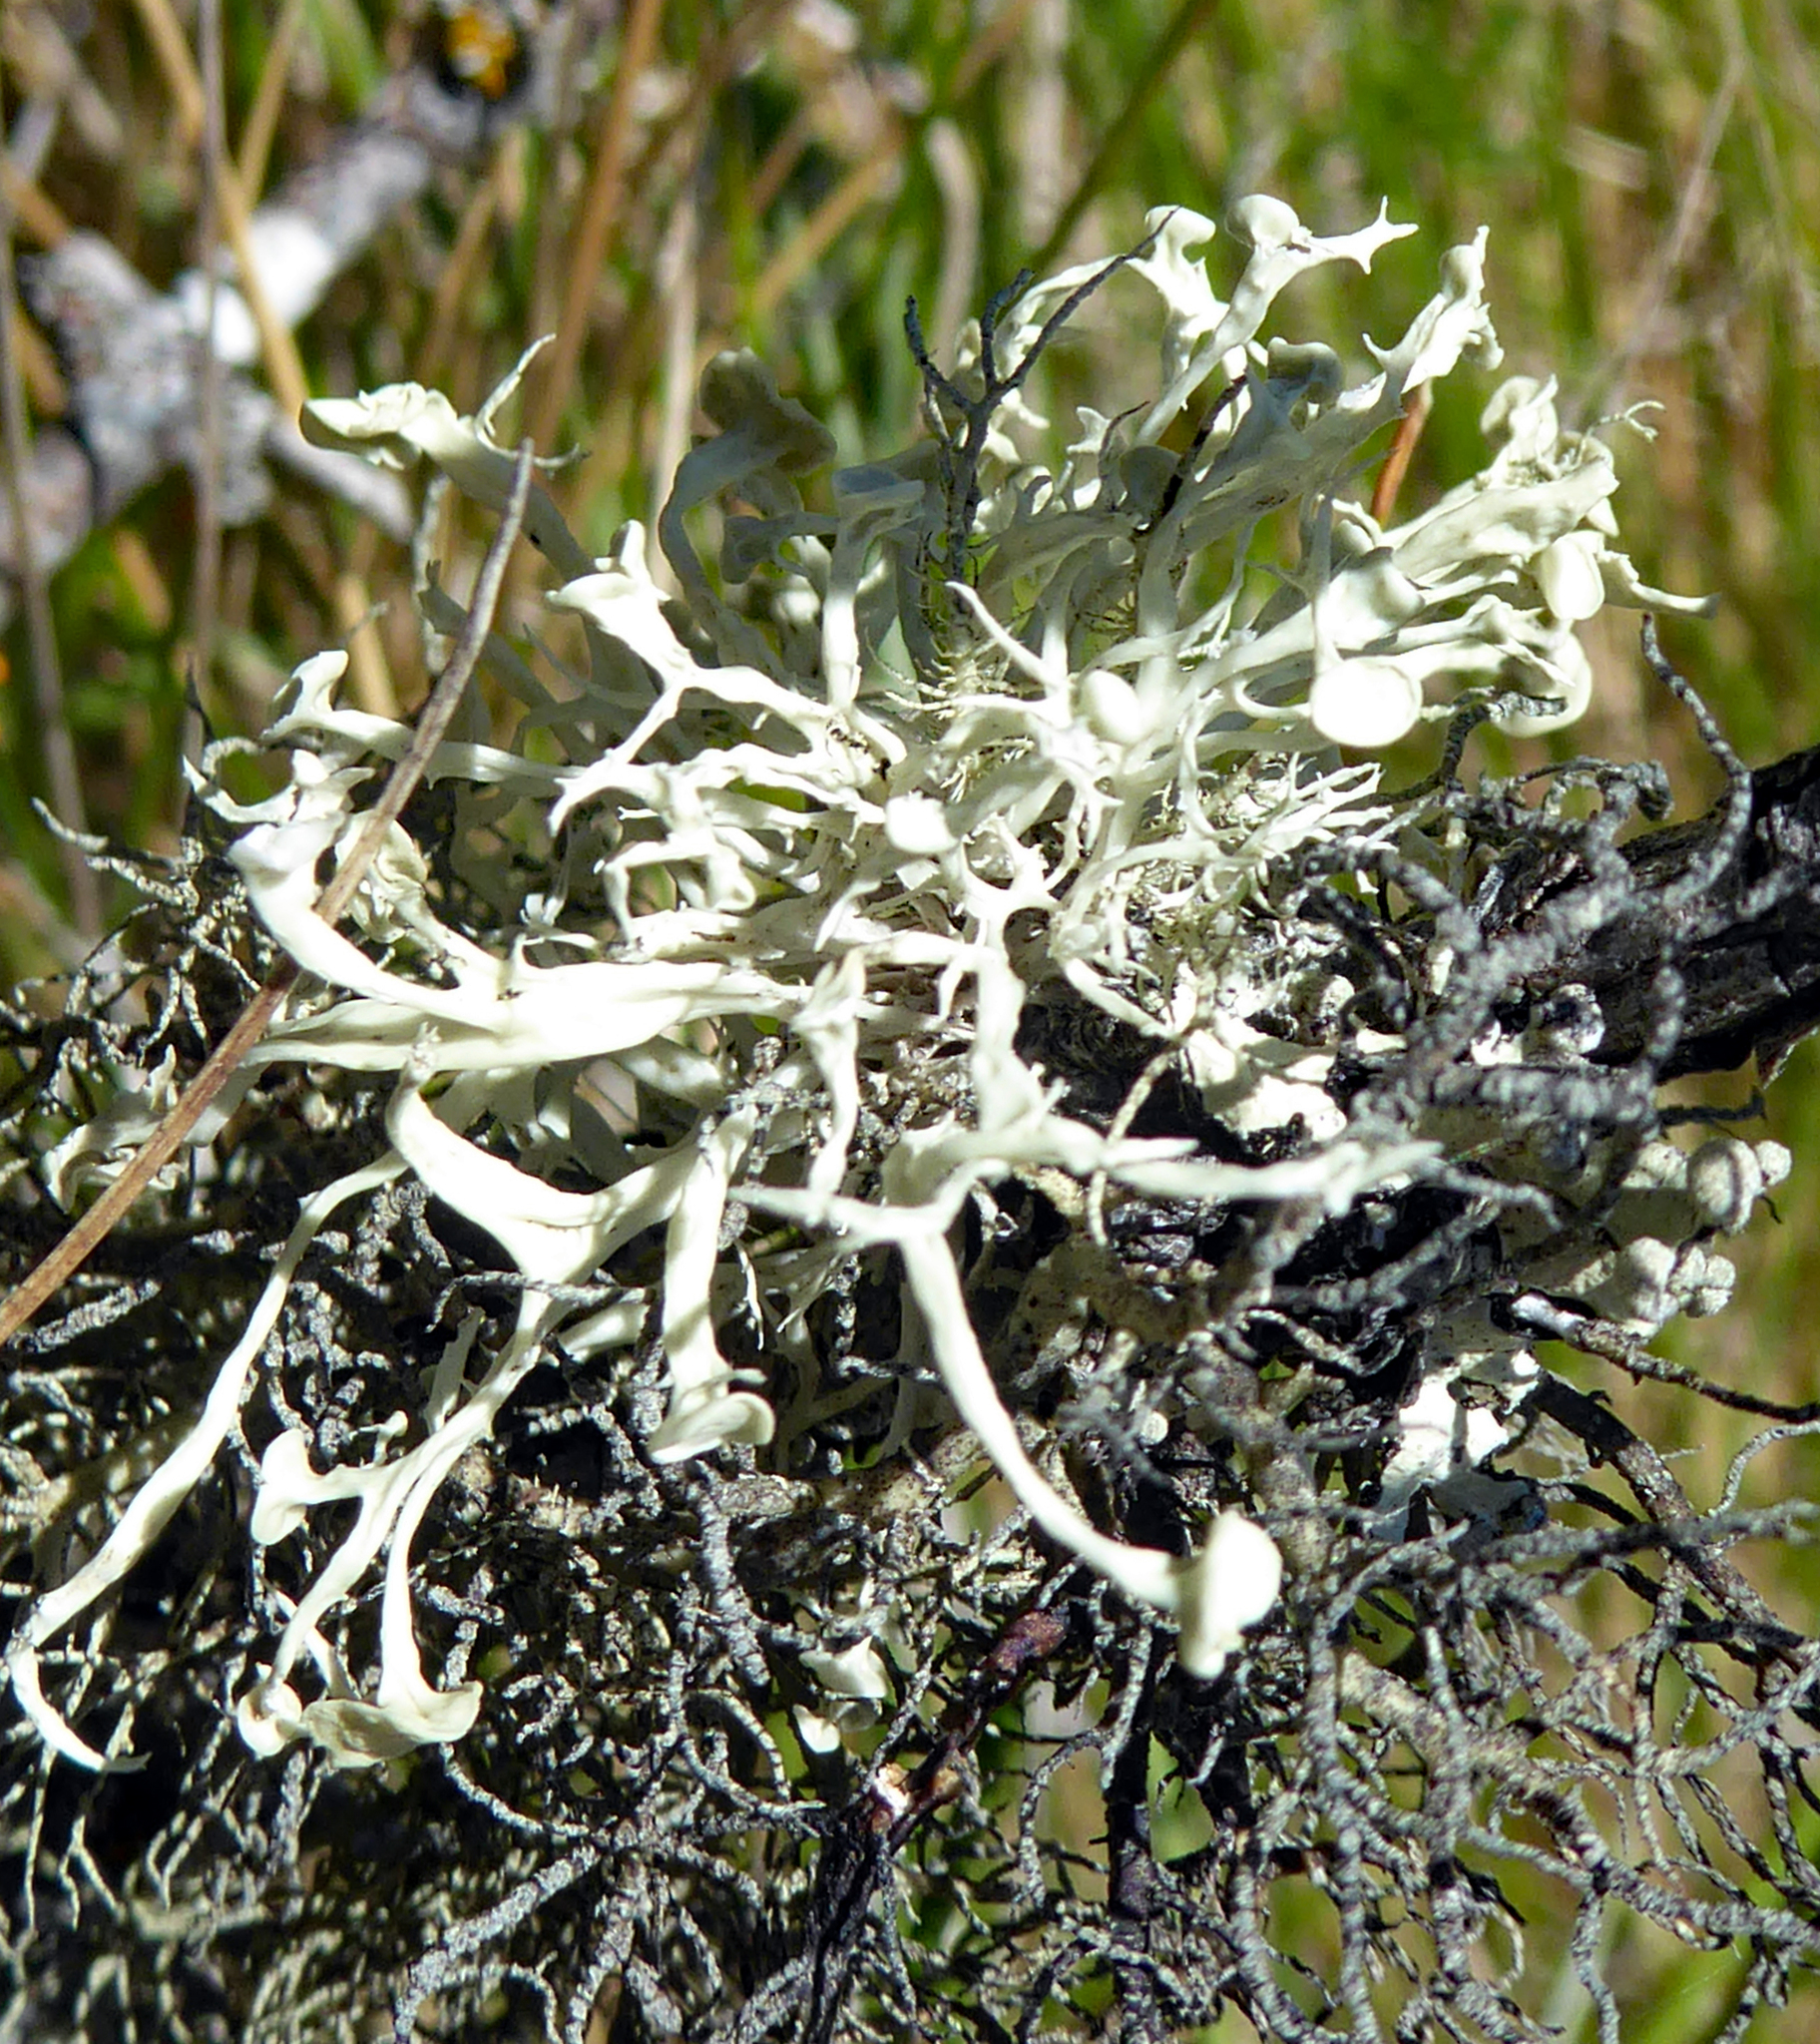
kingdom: Fungi
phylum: Ascomycota
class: Lecanoromycetes
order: Lecanorales
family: Ramalinaceae
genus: Ramalina
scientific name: Ramalina glaucescens
